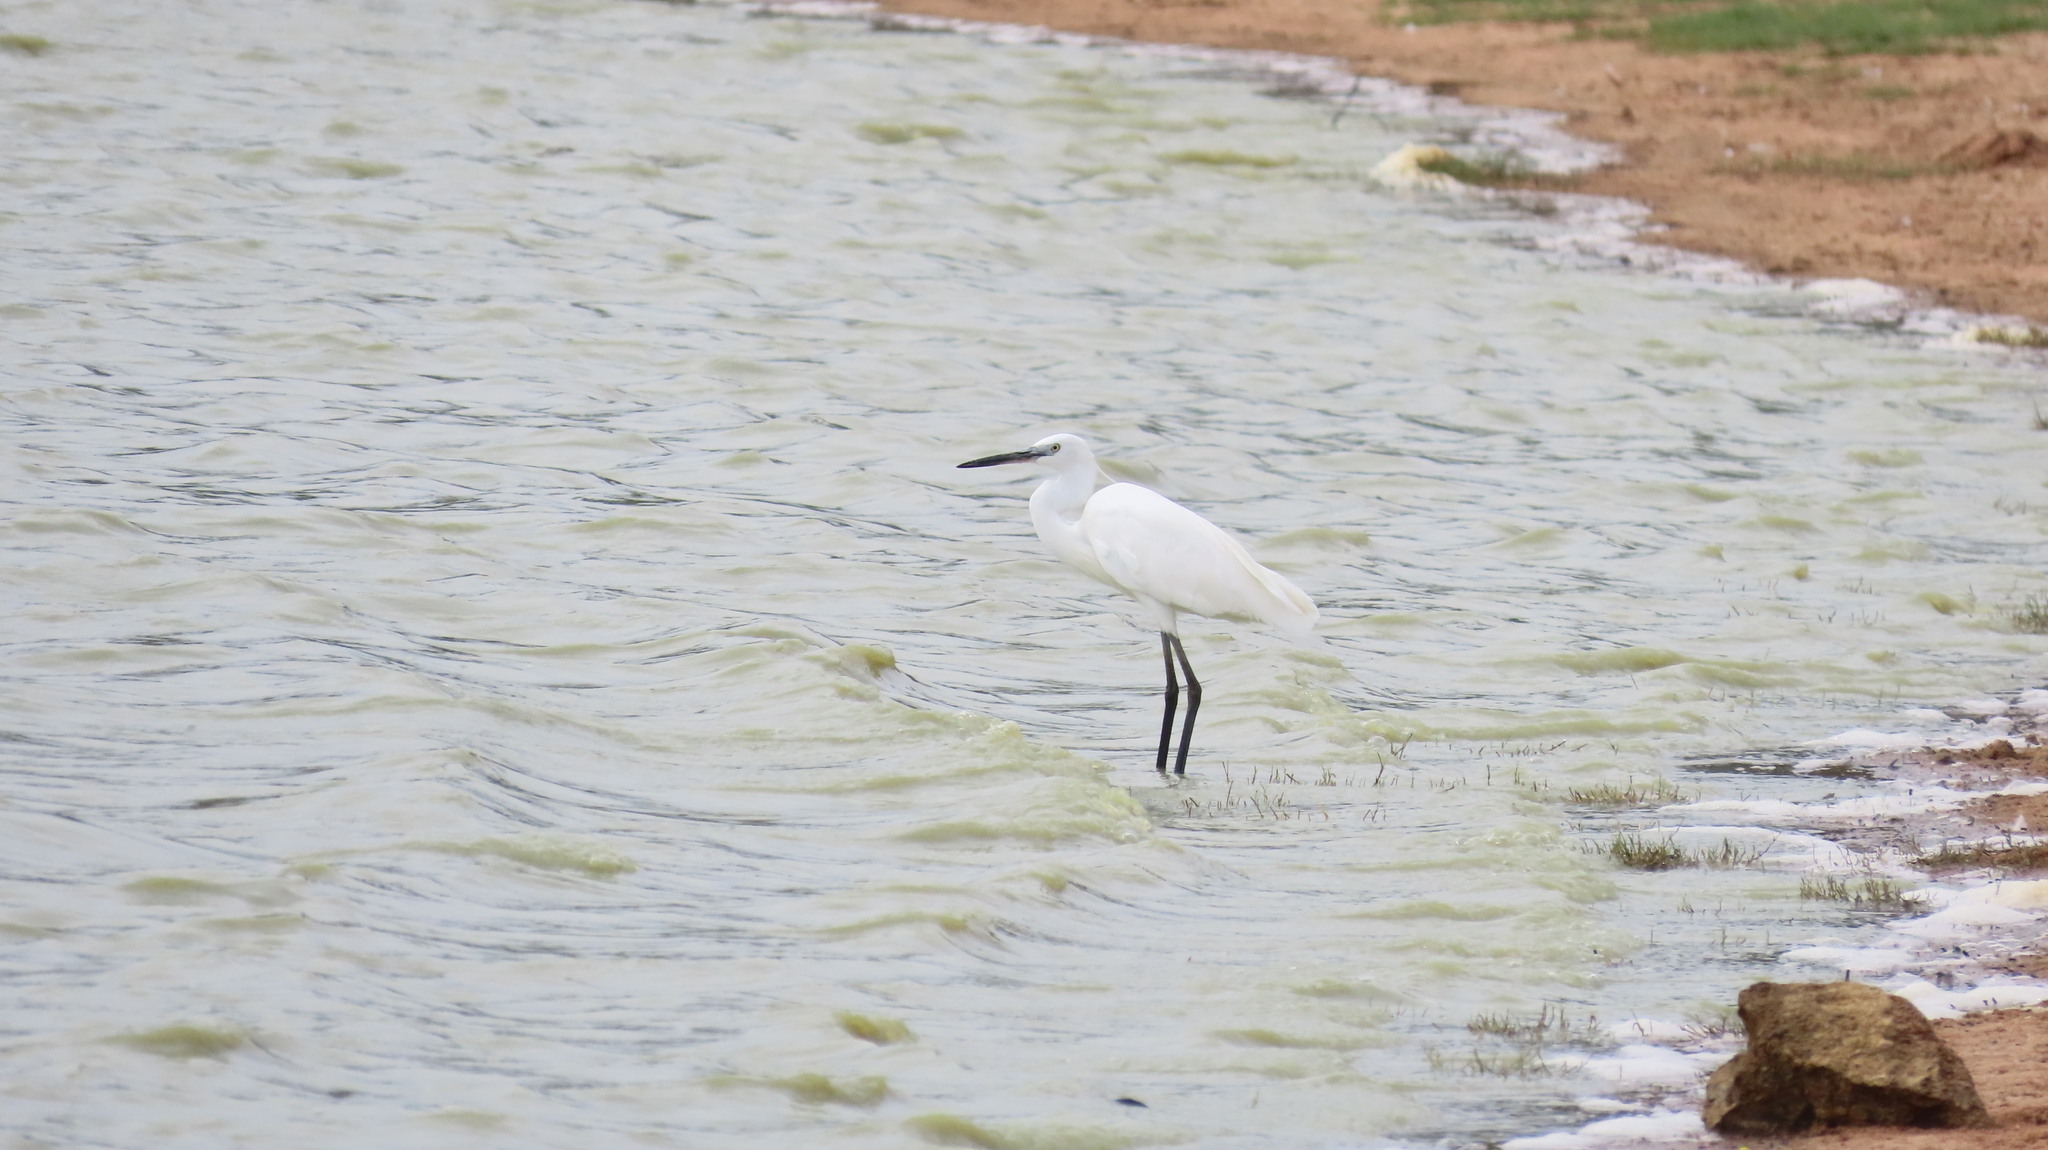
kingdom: Animalia
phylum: Chordata
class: Aves
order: Pelecaniformes
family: Ardeidae
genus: Egretta
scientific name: Egretta garzetta
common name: Little egret
